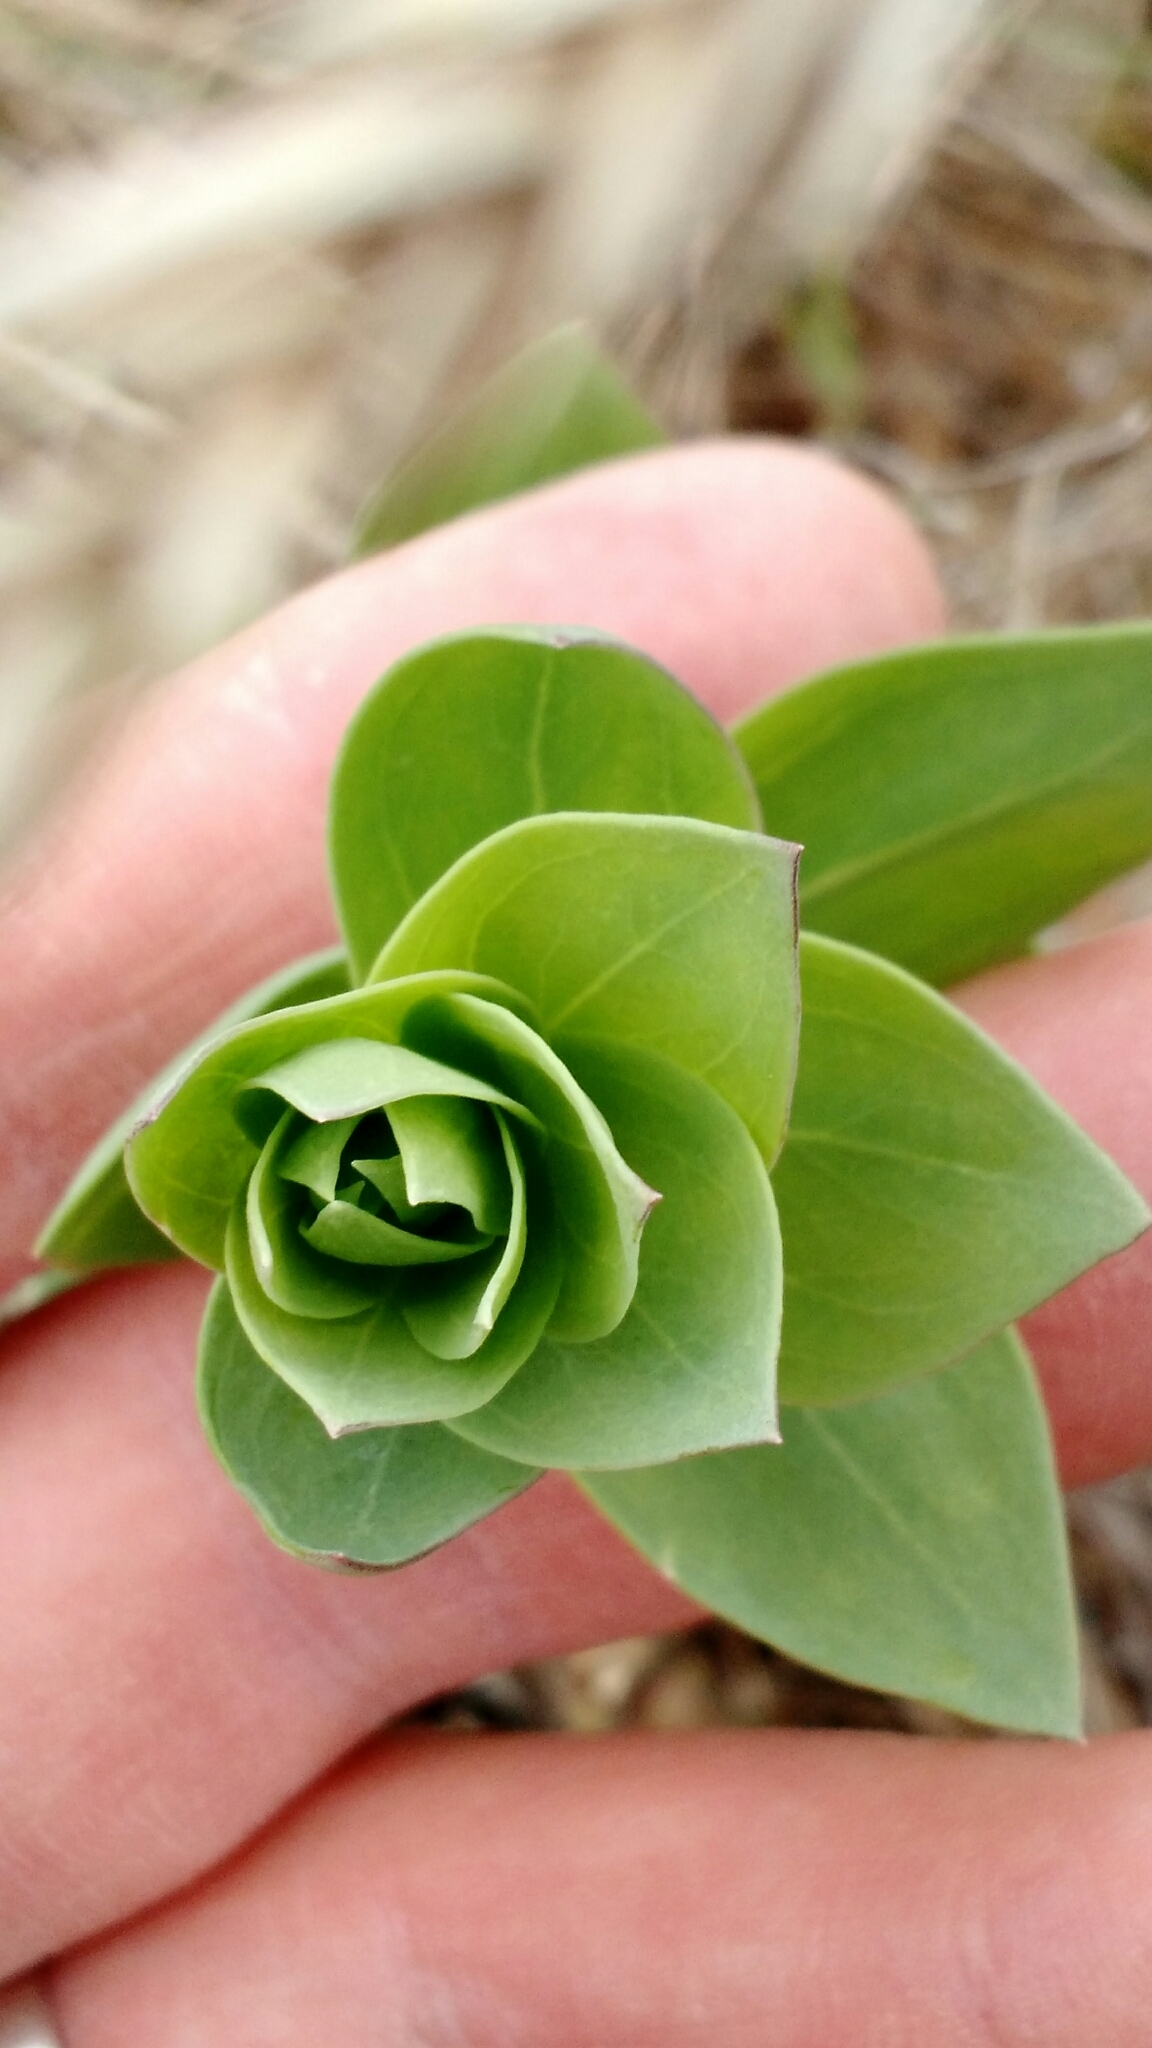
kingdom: Plantae
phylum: Tracheophyta
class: Magnoliopsida
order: Lamiales
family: Plantaginaceae
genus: Linaria
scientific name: Linaria dalmatica
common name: Dalmatian toadflax
